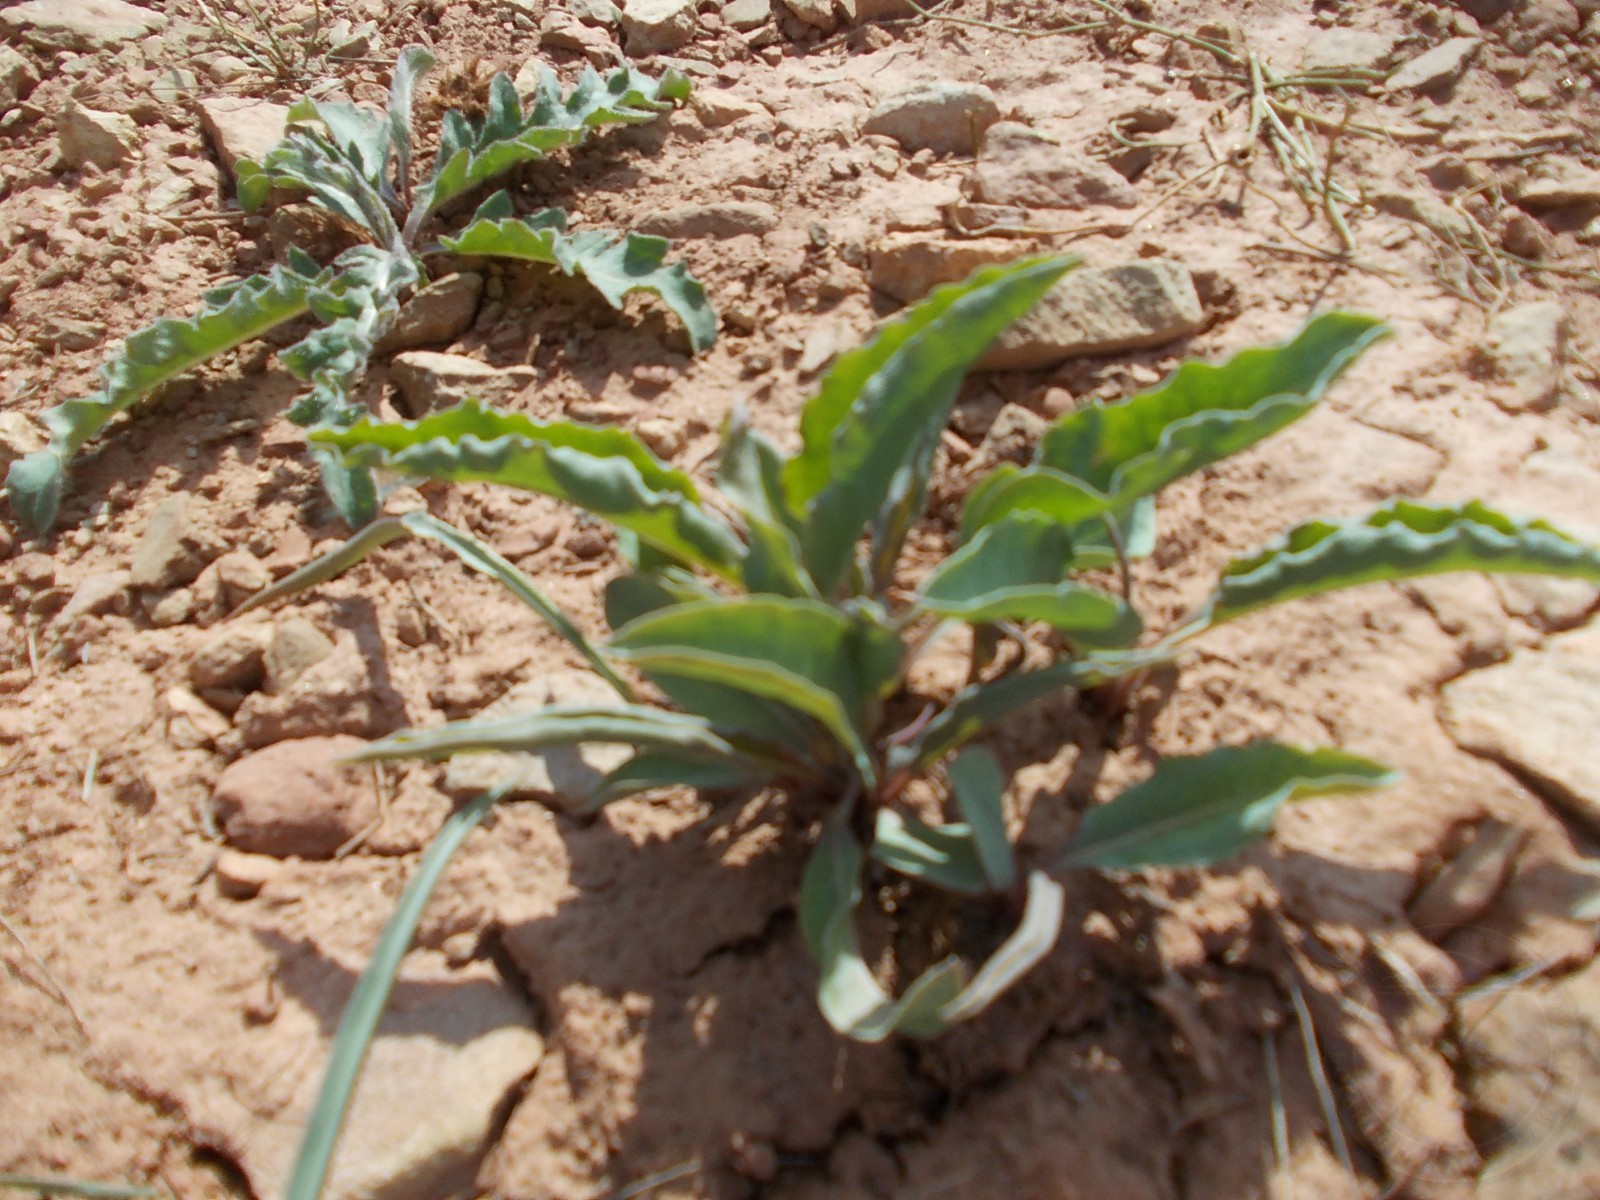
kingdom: Plantae
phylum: Tracheophyta
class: Magnoliopsida
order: Boraginales
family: Boraginaceae
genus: Rindera
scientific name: Rindera tetraspis
